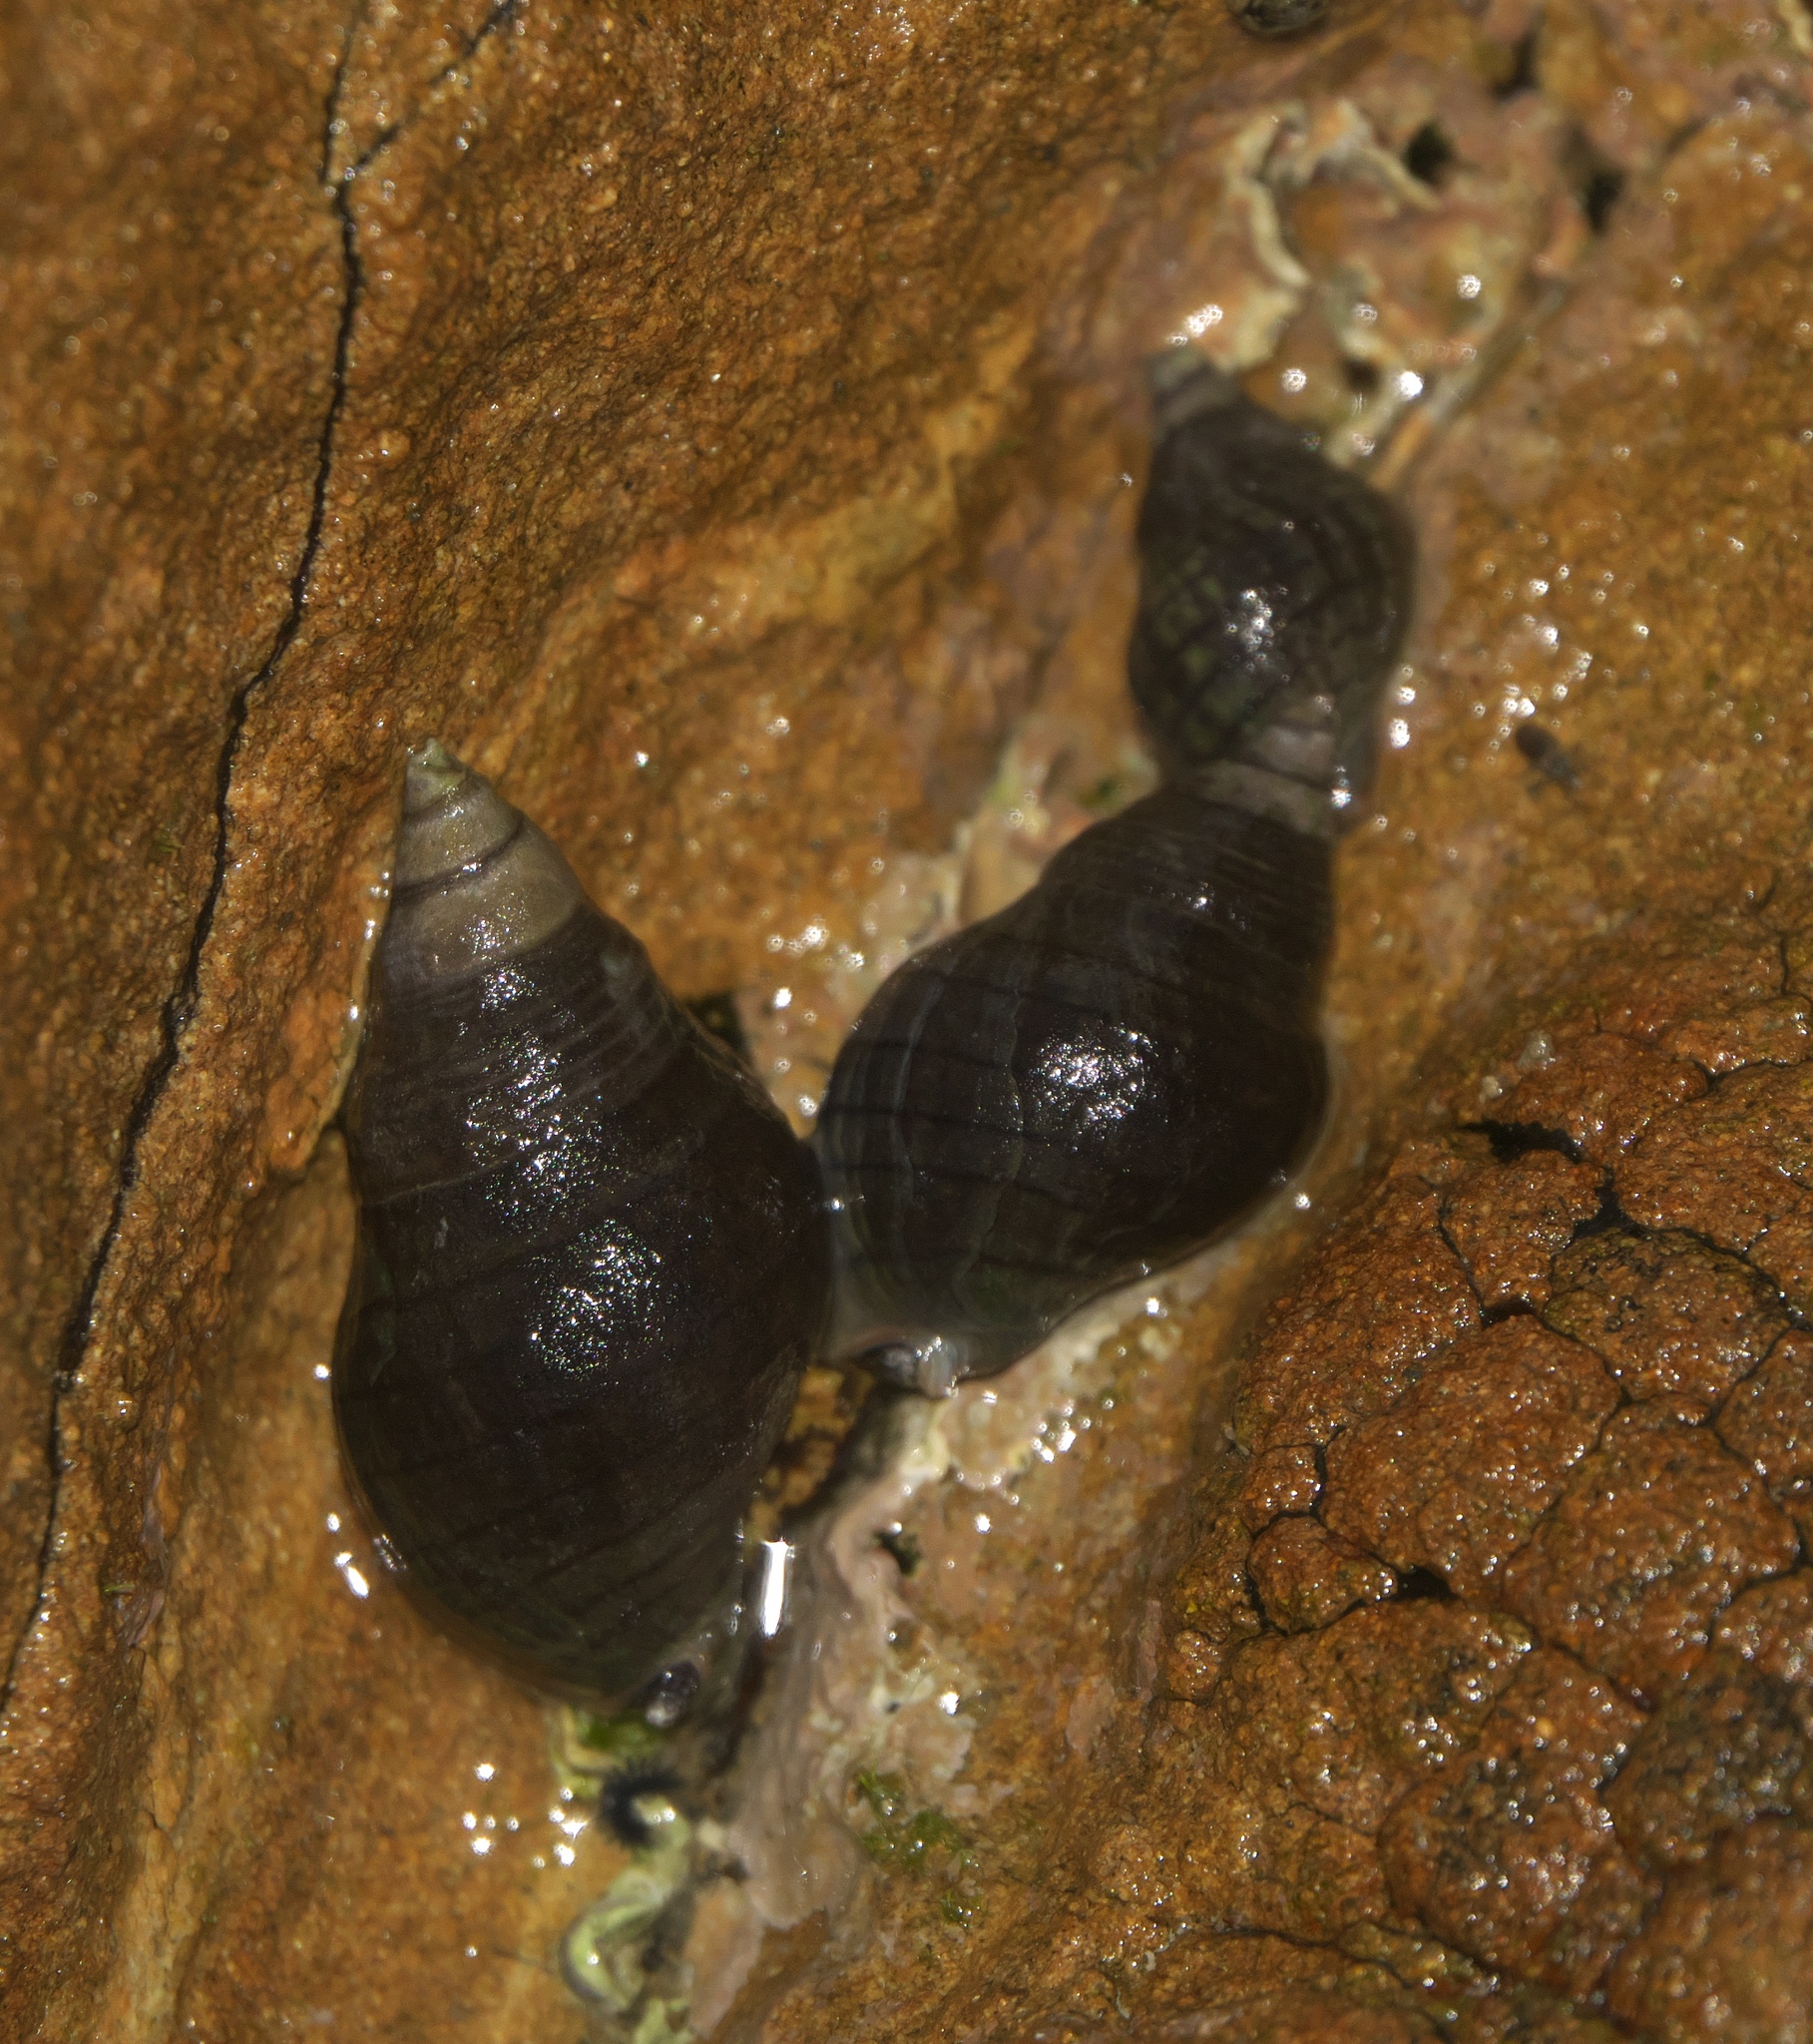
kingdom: Animalia
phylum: Mollusca
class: Gastropoda
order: Neogastropoda
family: Cominellidae
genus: Cominella
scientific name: Cominella virgata
